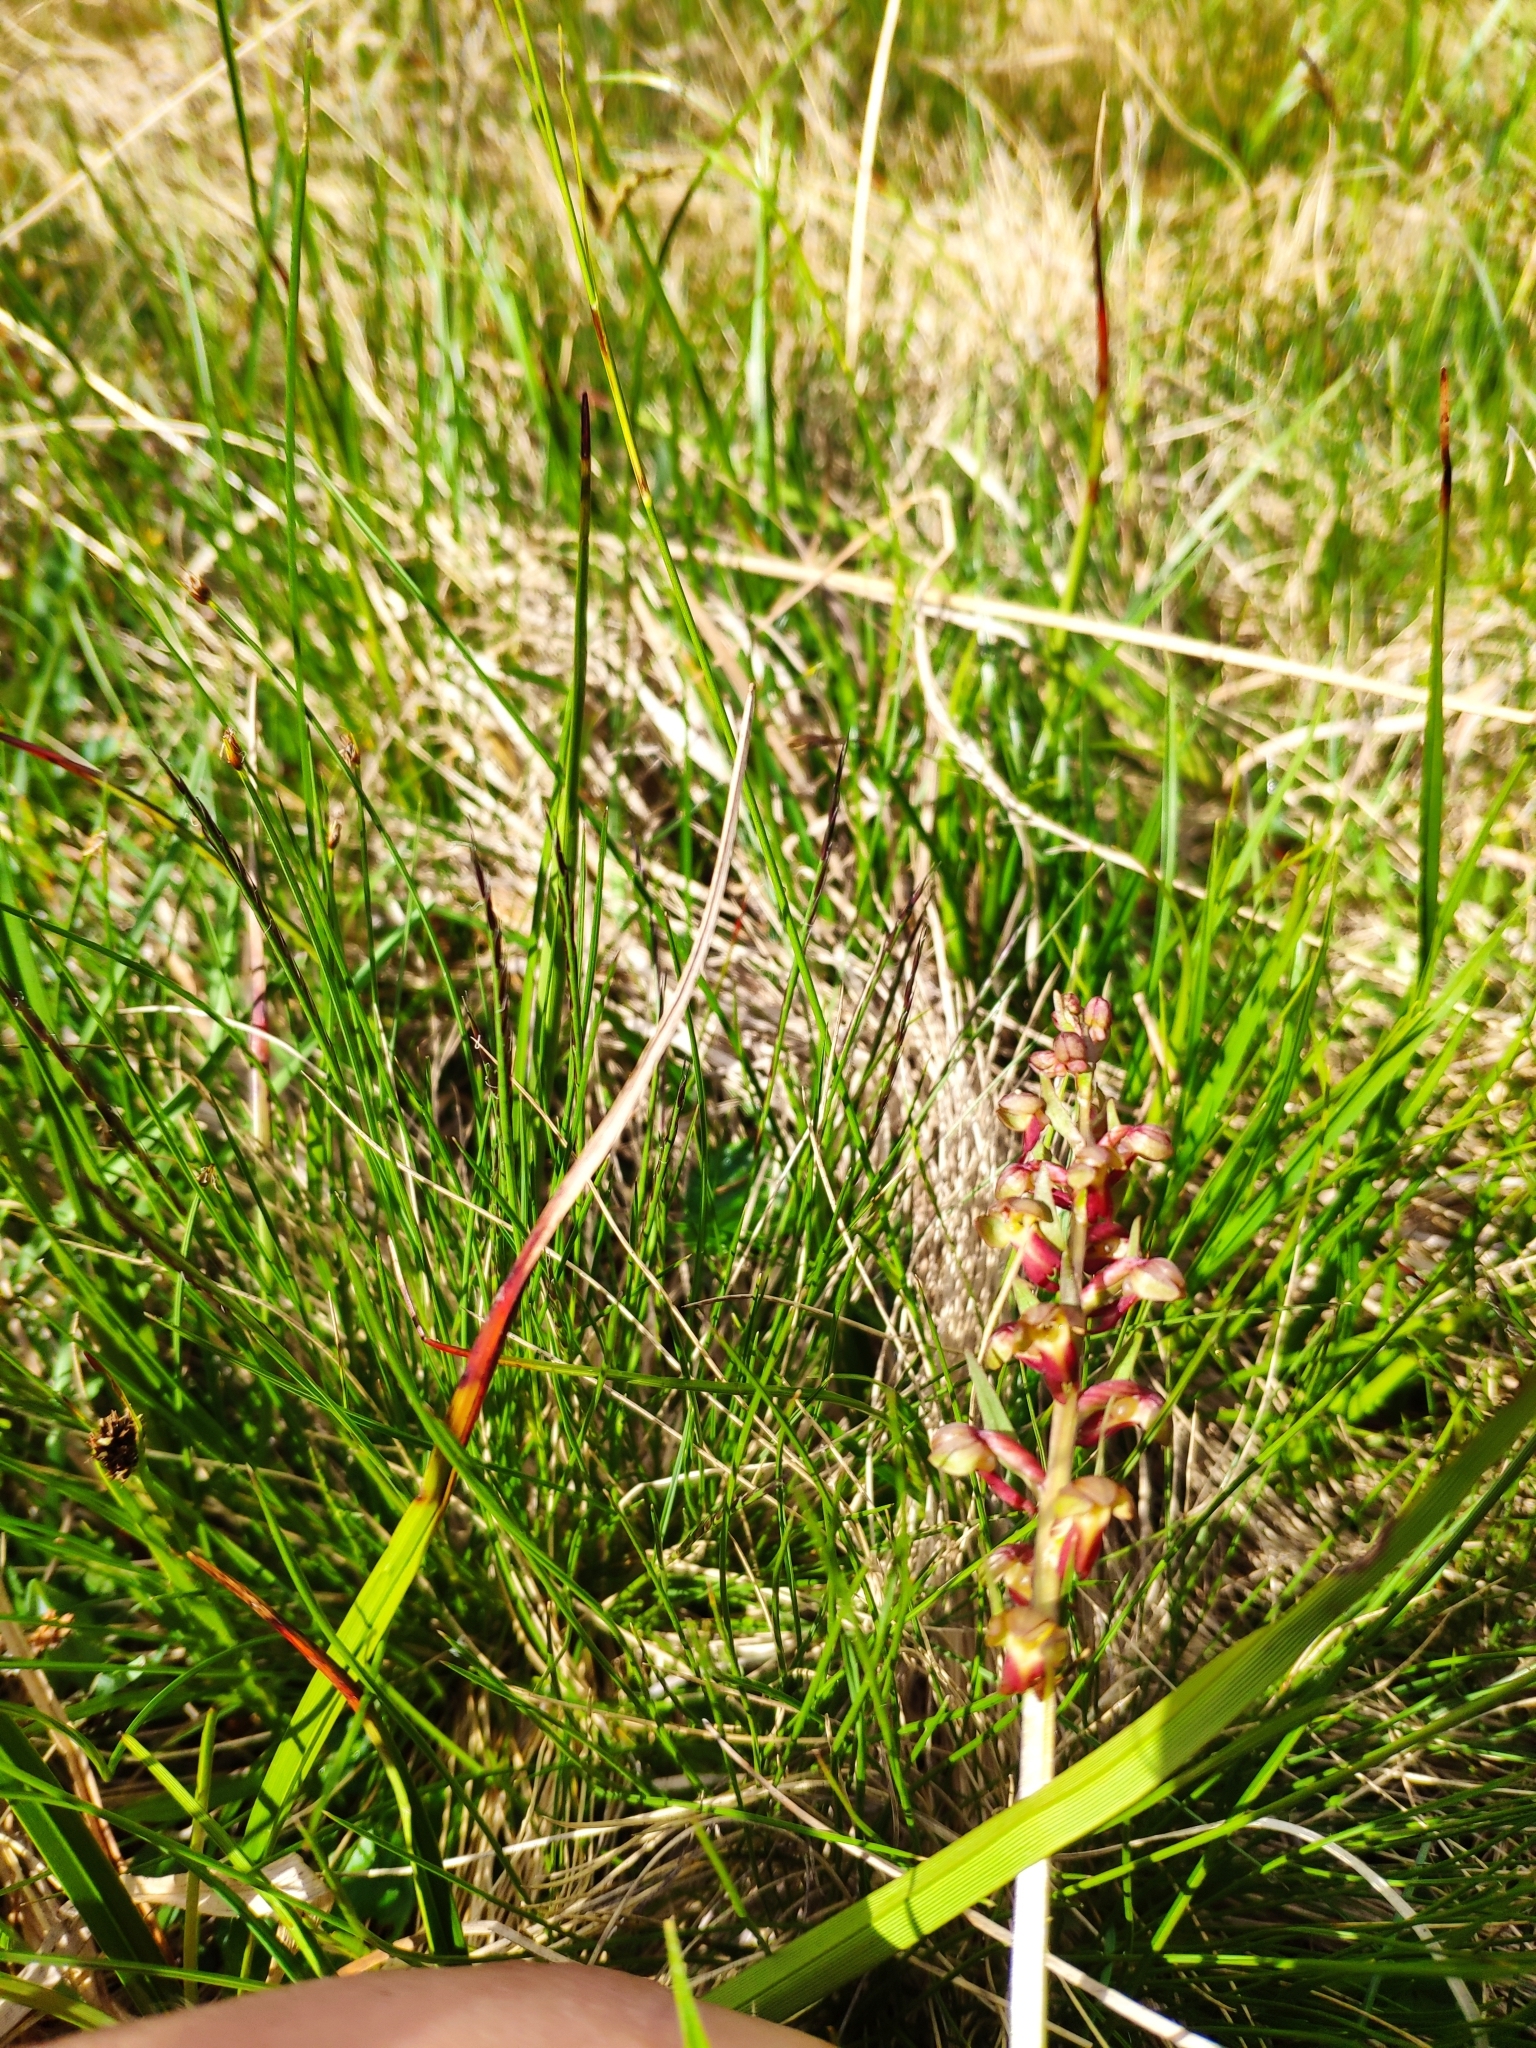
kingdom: Plantae
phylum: Tracheophyta
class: Liliopsida
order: Asparagales
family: Orchidaceae
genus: Dactylorhiza
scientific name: Dactylorhiza viridis
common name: Longbract frog orchid
